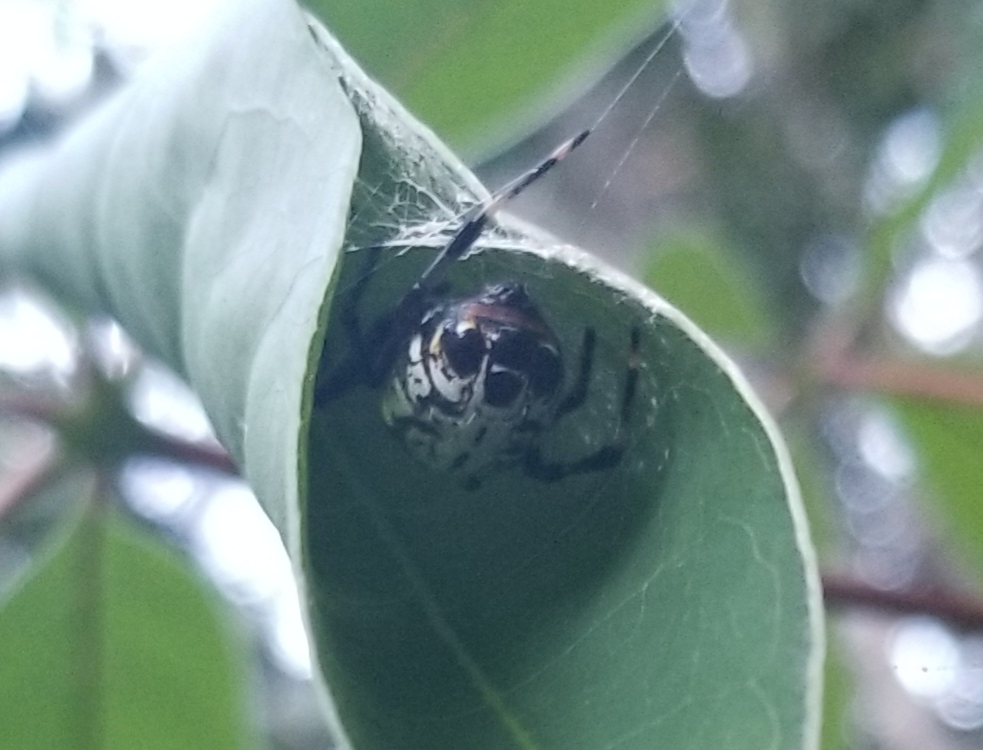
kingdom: Animalia
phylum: Arthropoda
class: Arachnida
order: Araneae
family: Araneidae
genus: Alpaida
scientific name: Alpaida truncata
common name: Orb weavers
